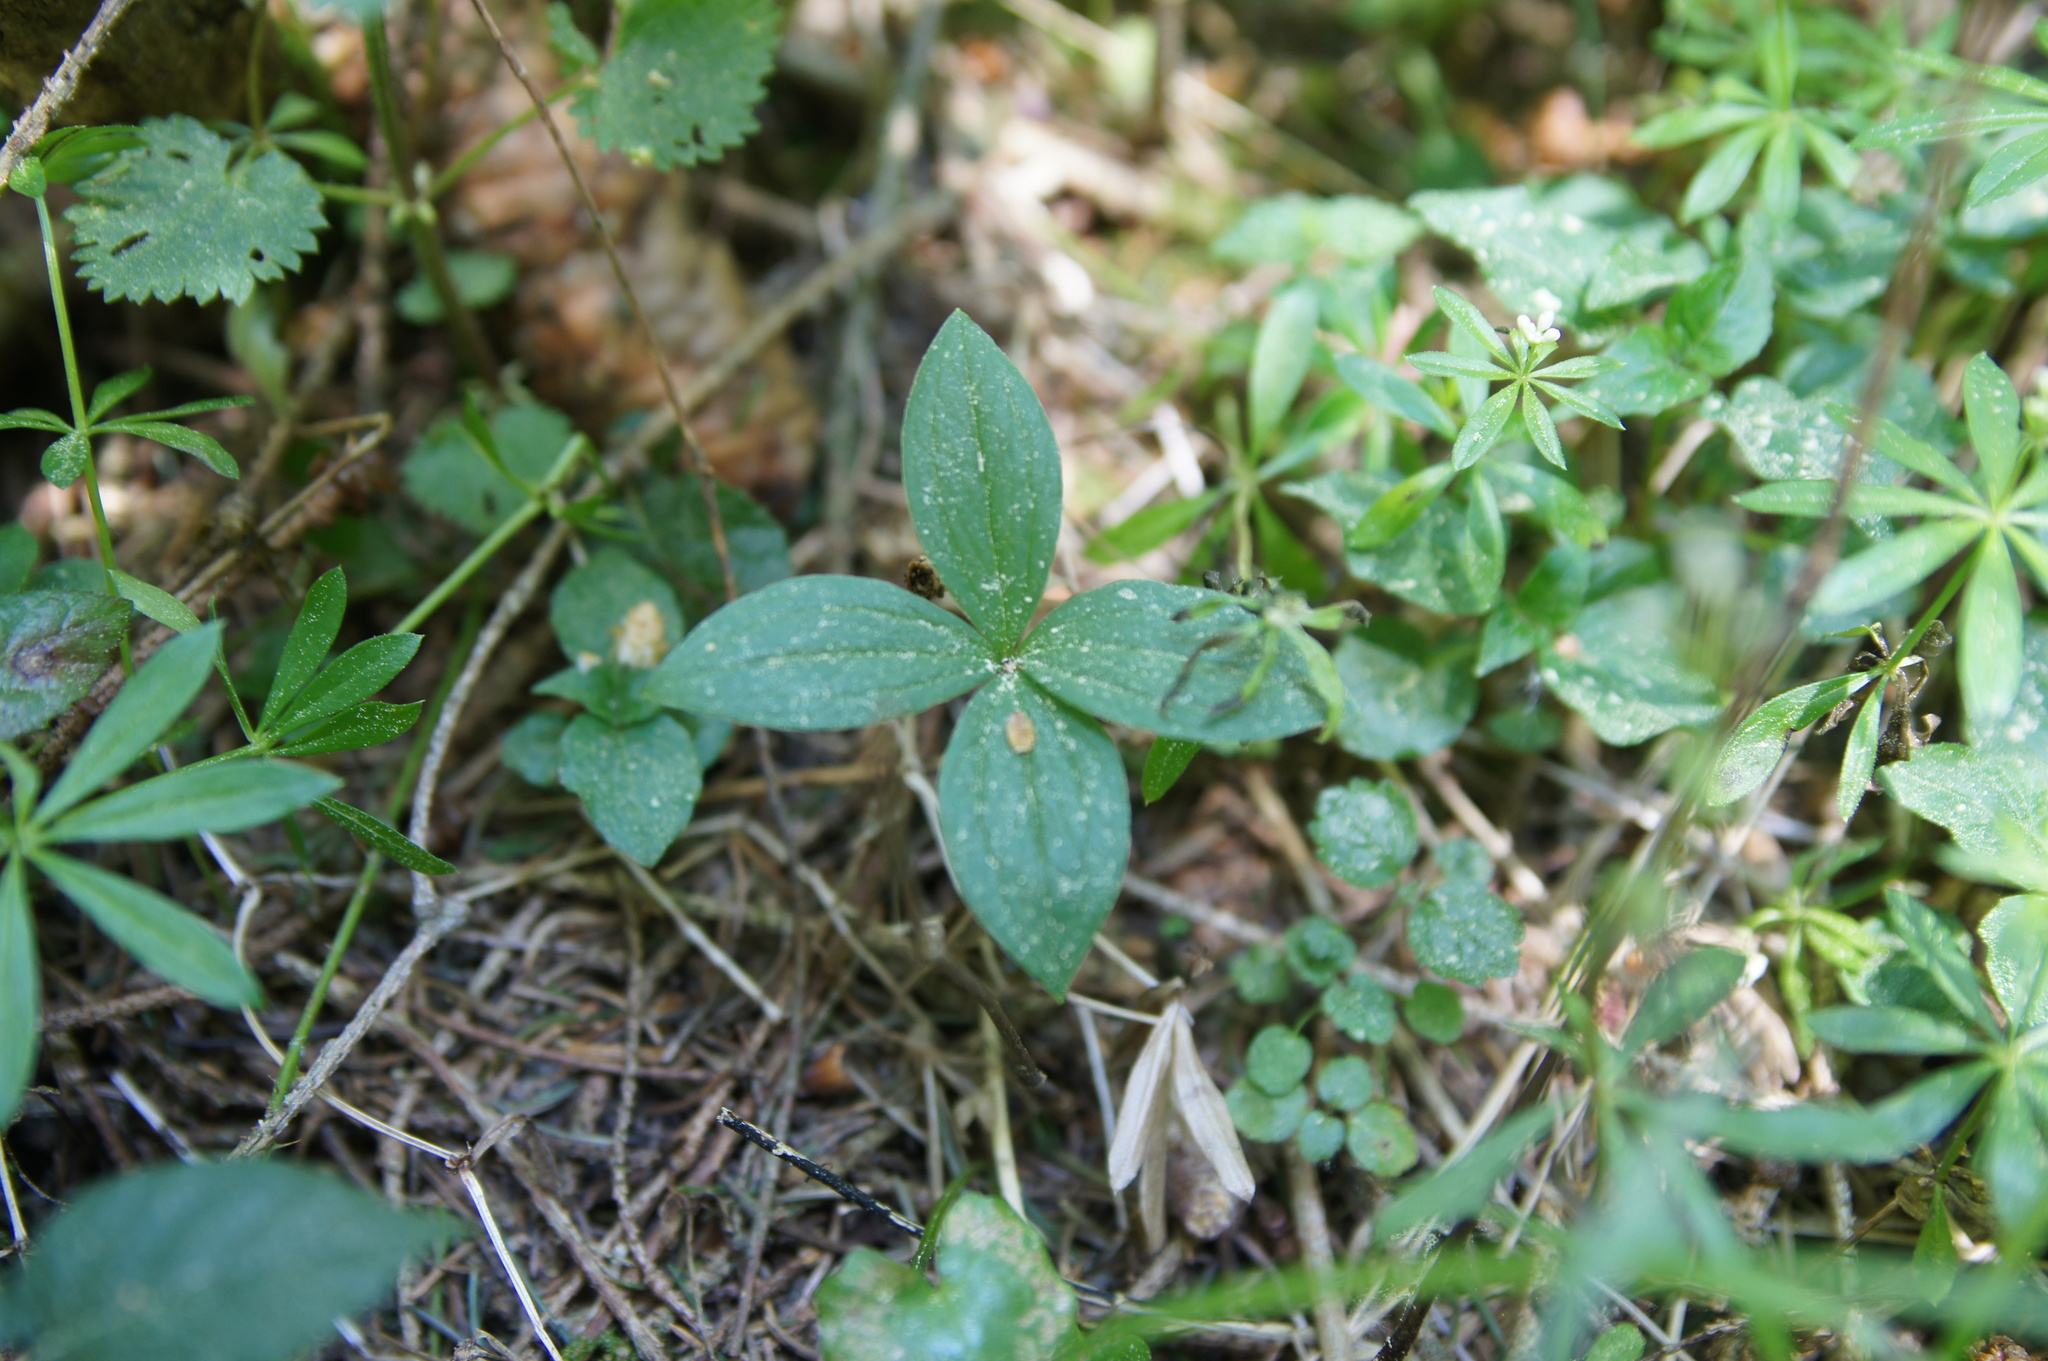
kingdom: Plantae
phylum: Tracheophyta
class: Liliopsida
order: Liliales
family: Melanthiaceae
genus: Paris
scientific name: Paris quadrifolia
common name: Herb-paris
